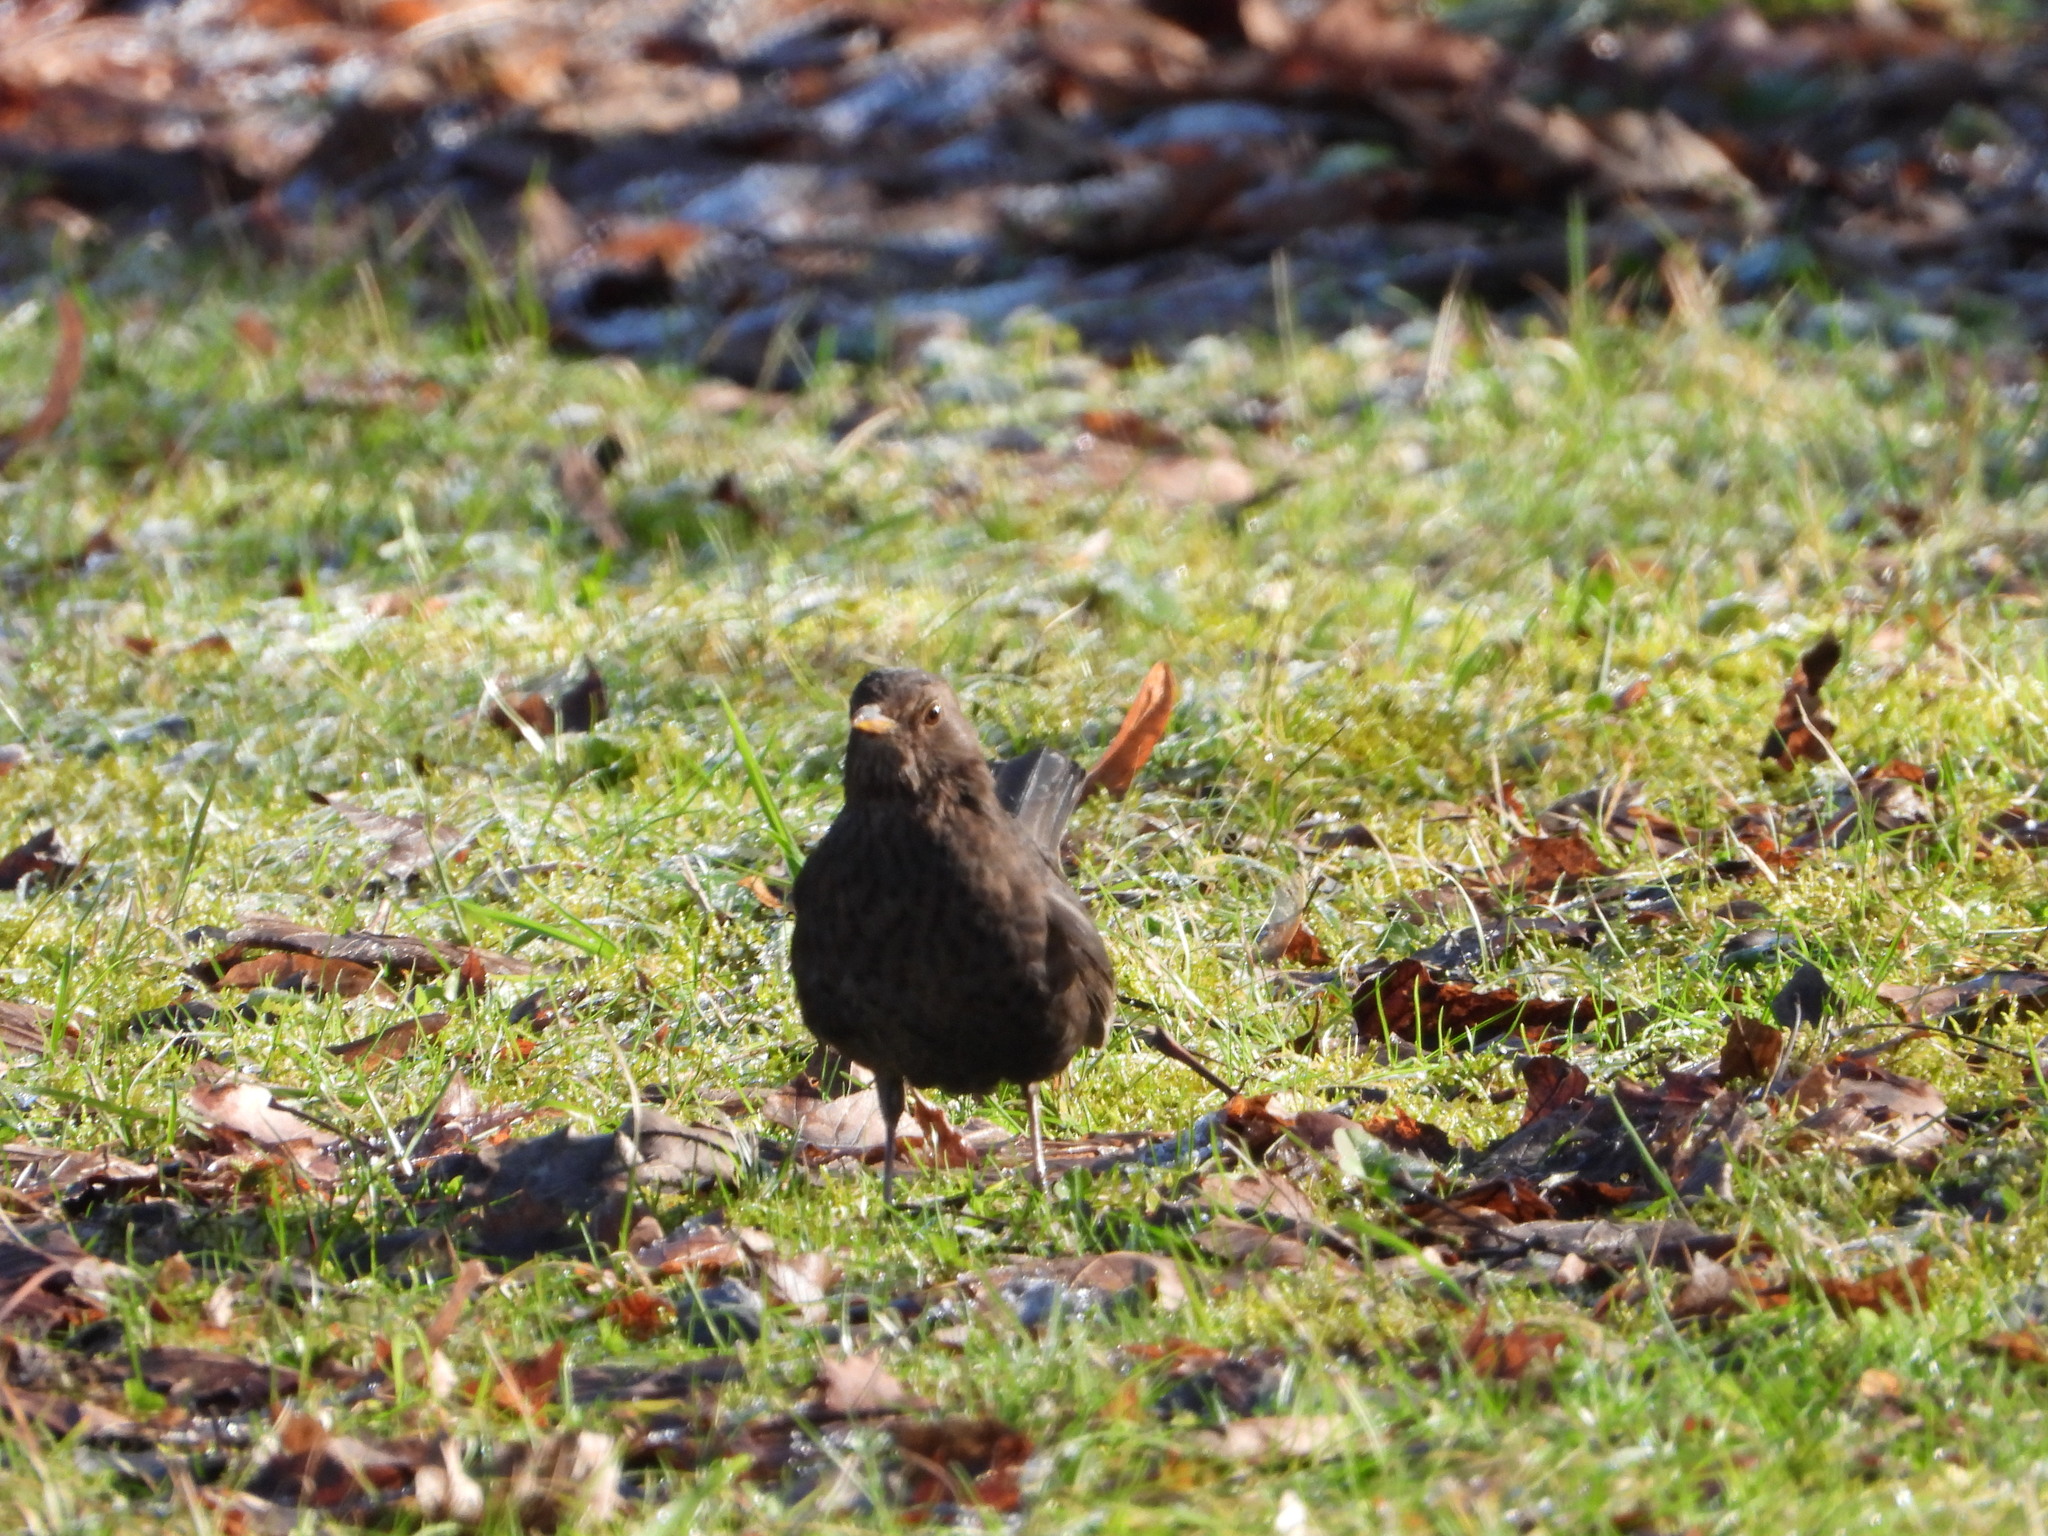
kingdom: Animalia
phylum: Chordata
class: Aves
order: Passeriformes
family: Turdidae
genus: Turdus
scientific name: Turdus merula
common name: Common blackbird
